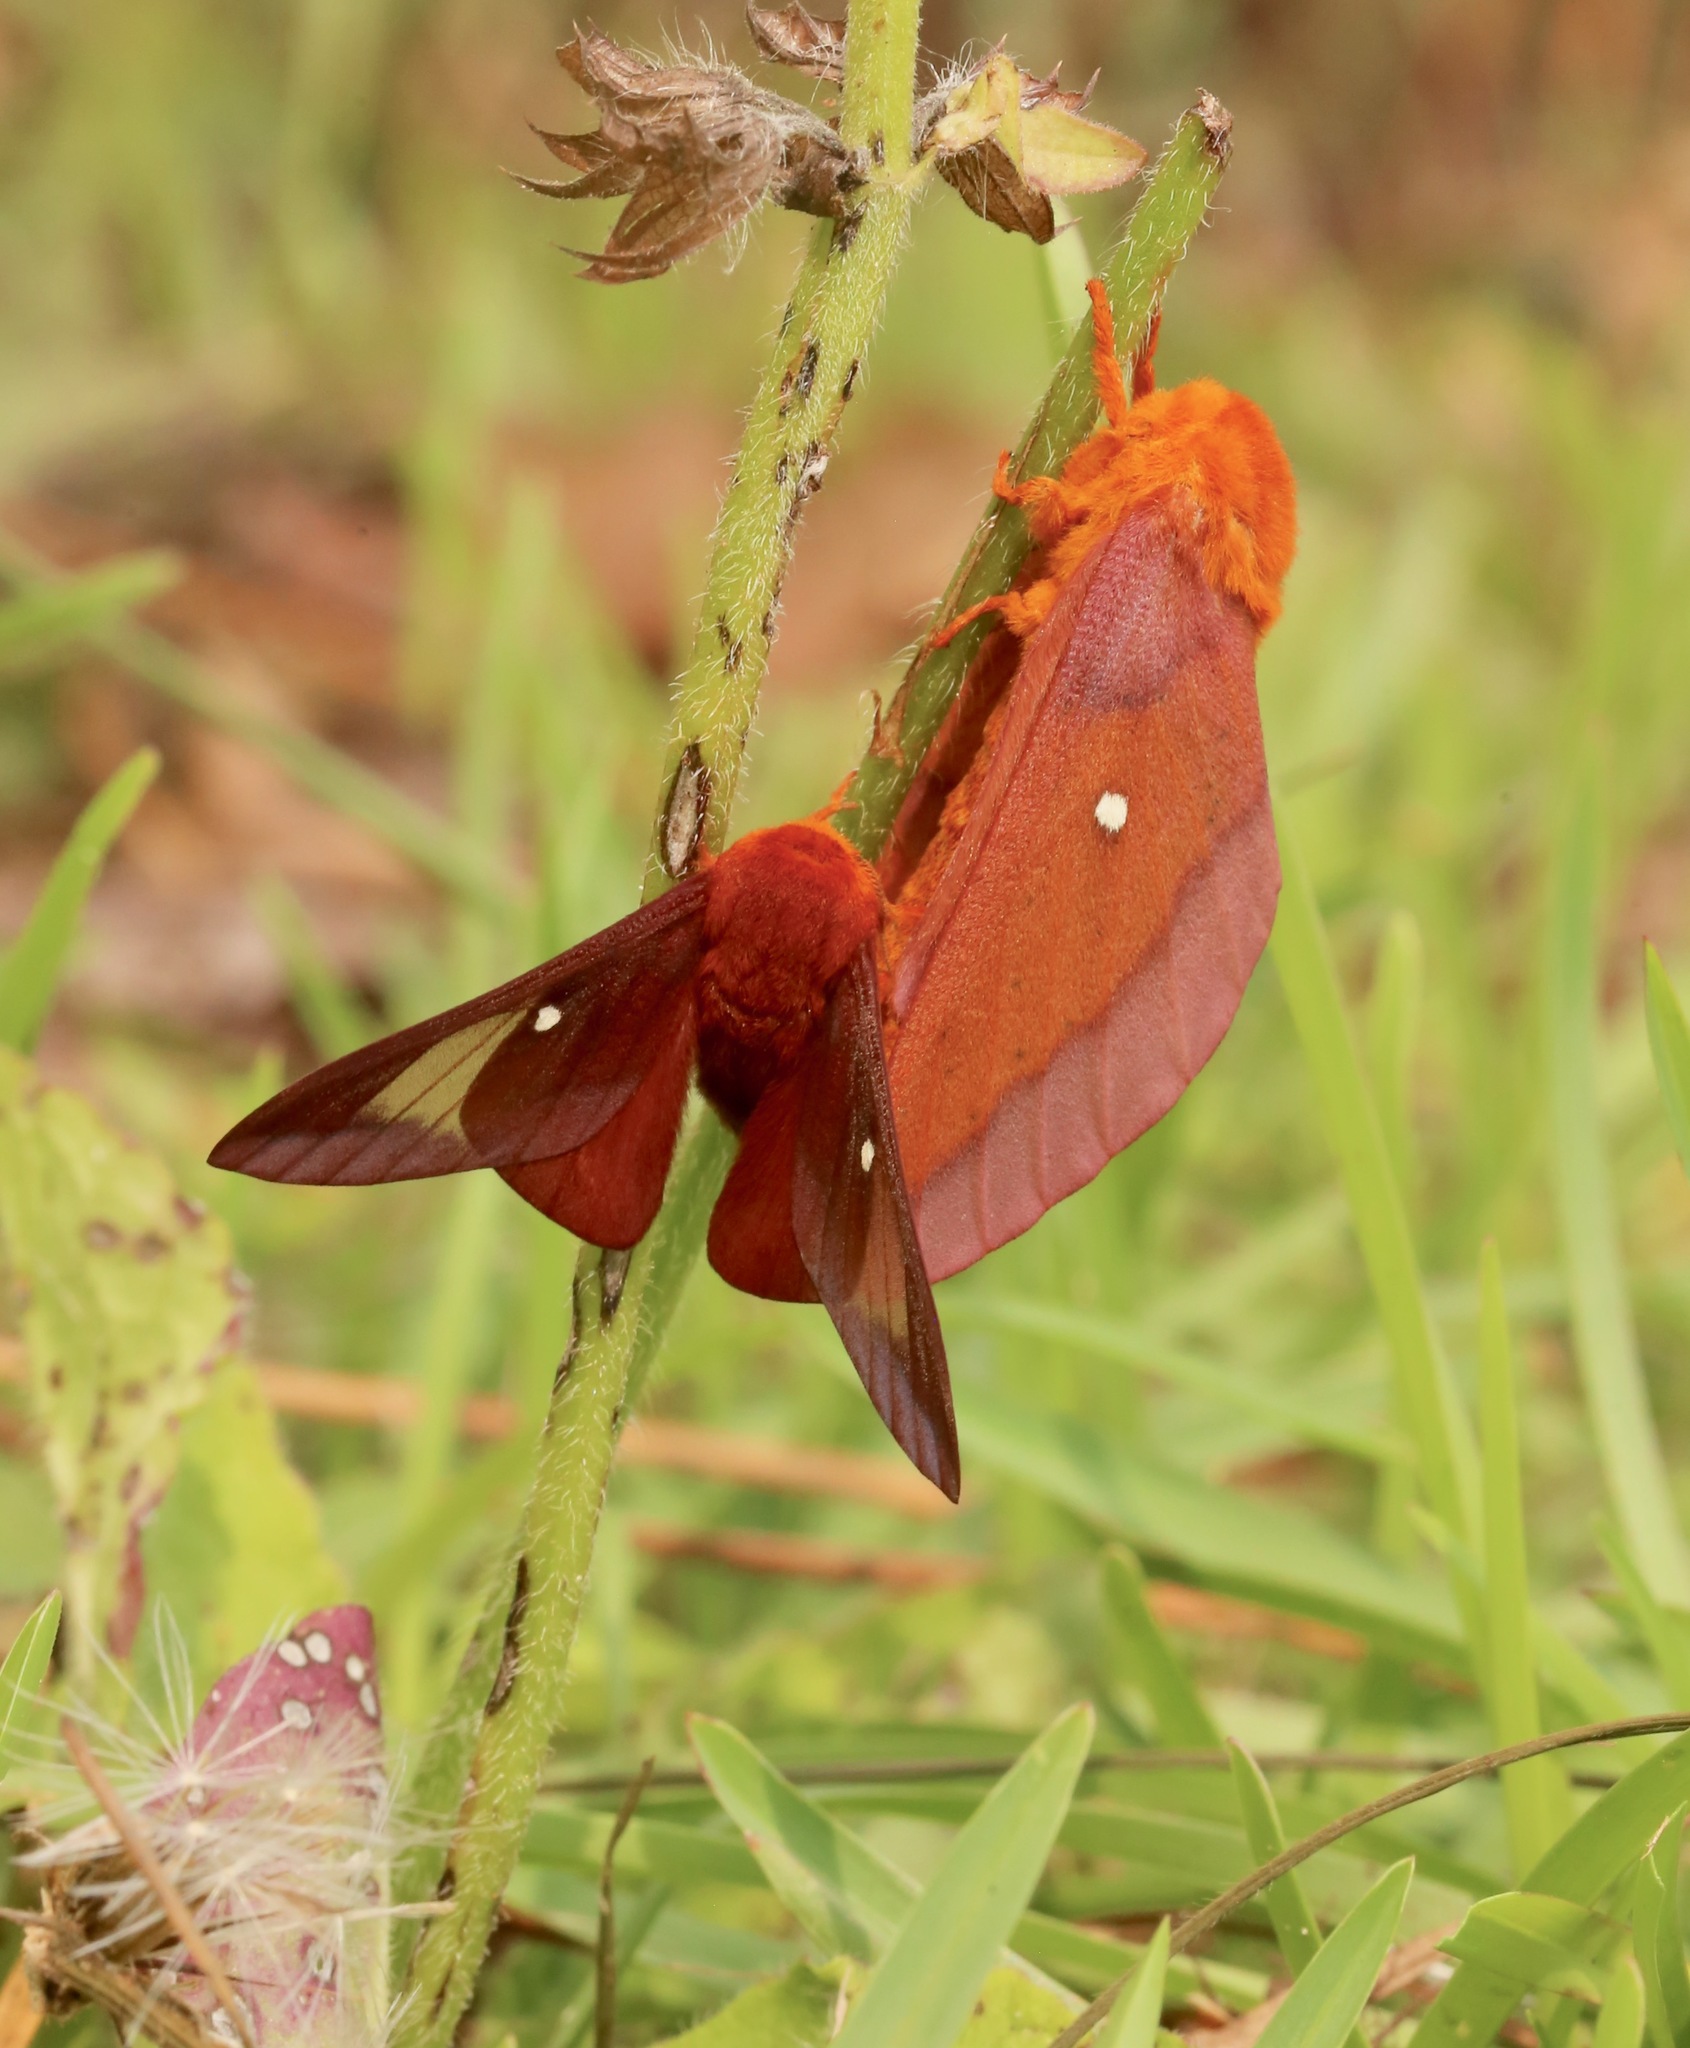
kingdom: Animalia
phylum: Arthropoda
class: Insecta
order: Lepidoptera
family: Saturniidae
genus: Anisota
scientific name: Anisota virginiensis
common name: Pink striped oakworm moth
